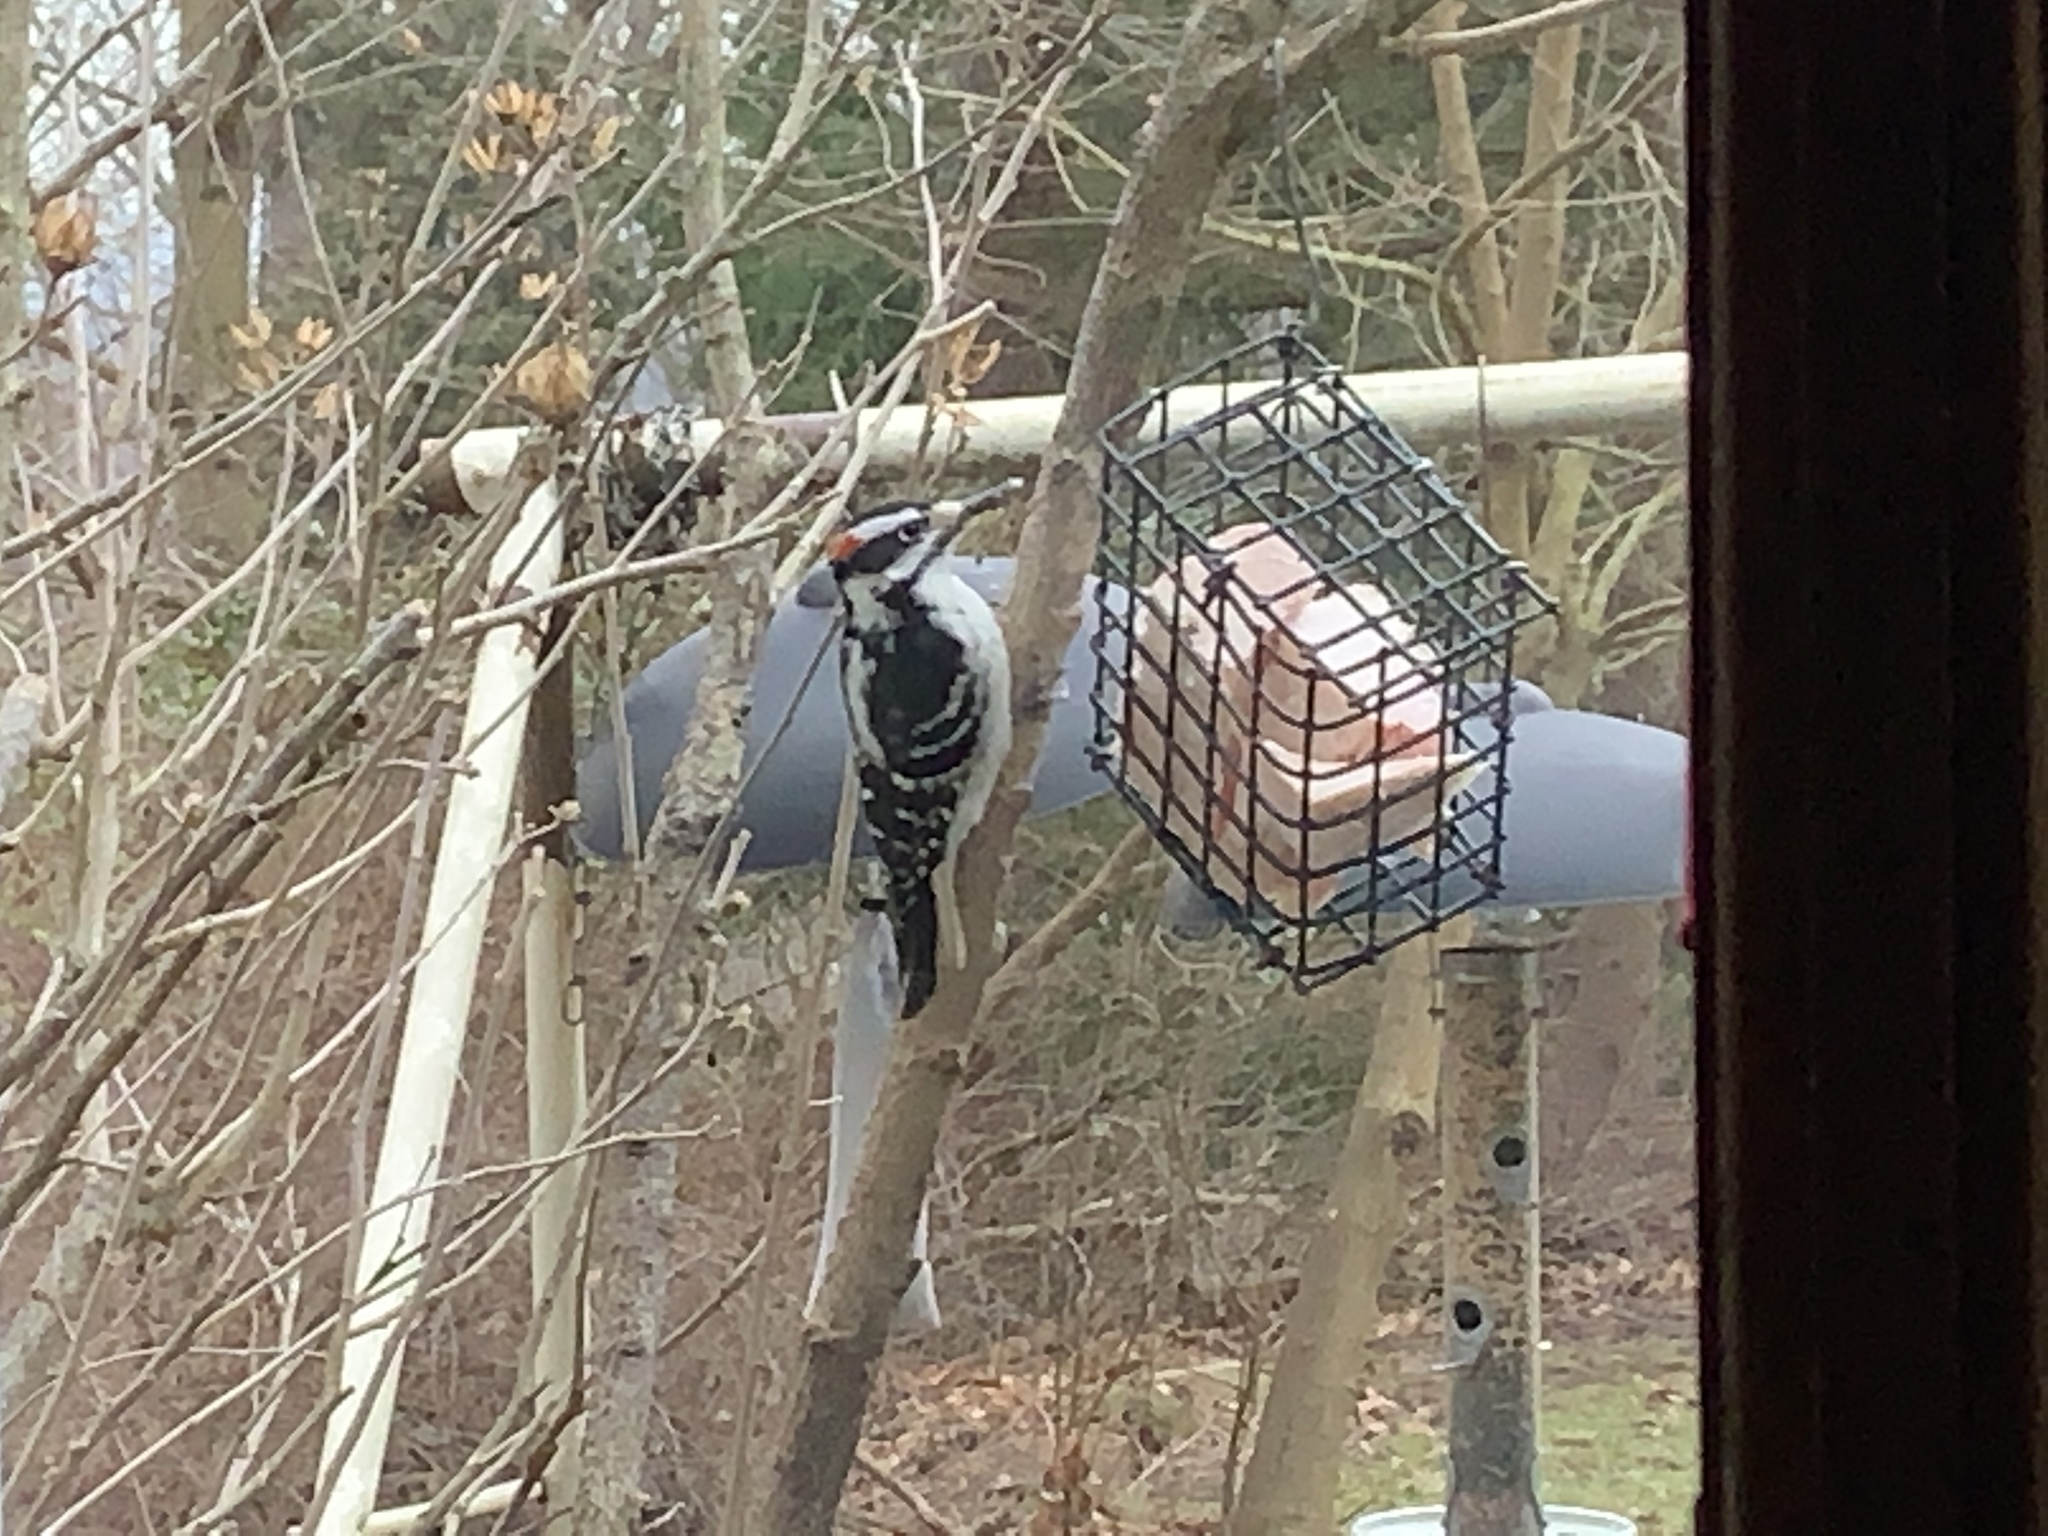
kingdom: Animalia
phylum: Chordata
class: Aves
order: Piciformes
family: Picidae
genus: Leuconotopicus
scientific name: Leuconotopicus villosus
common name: Hairy woodpecker
